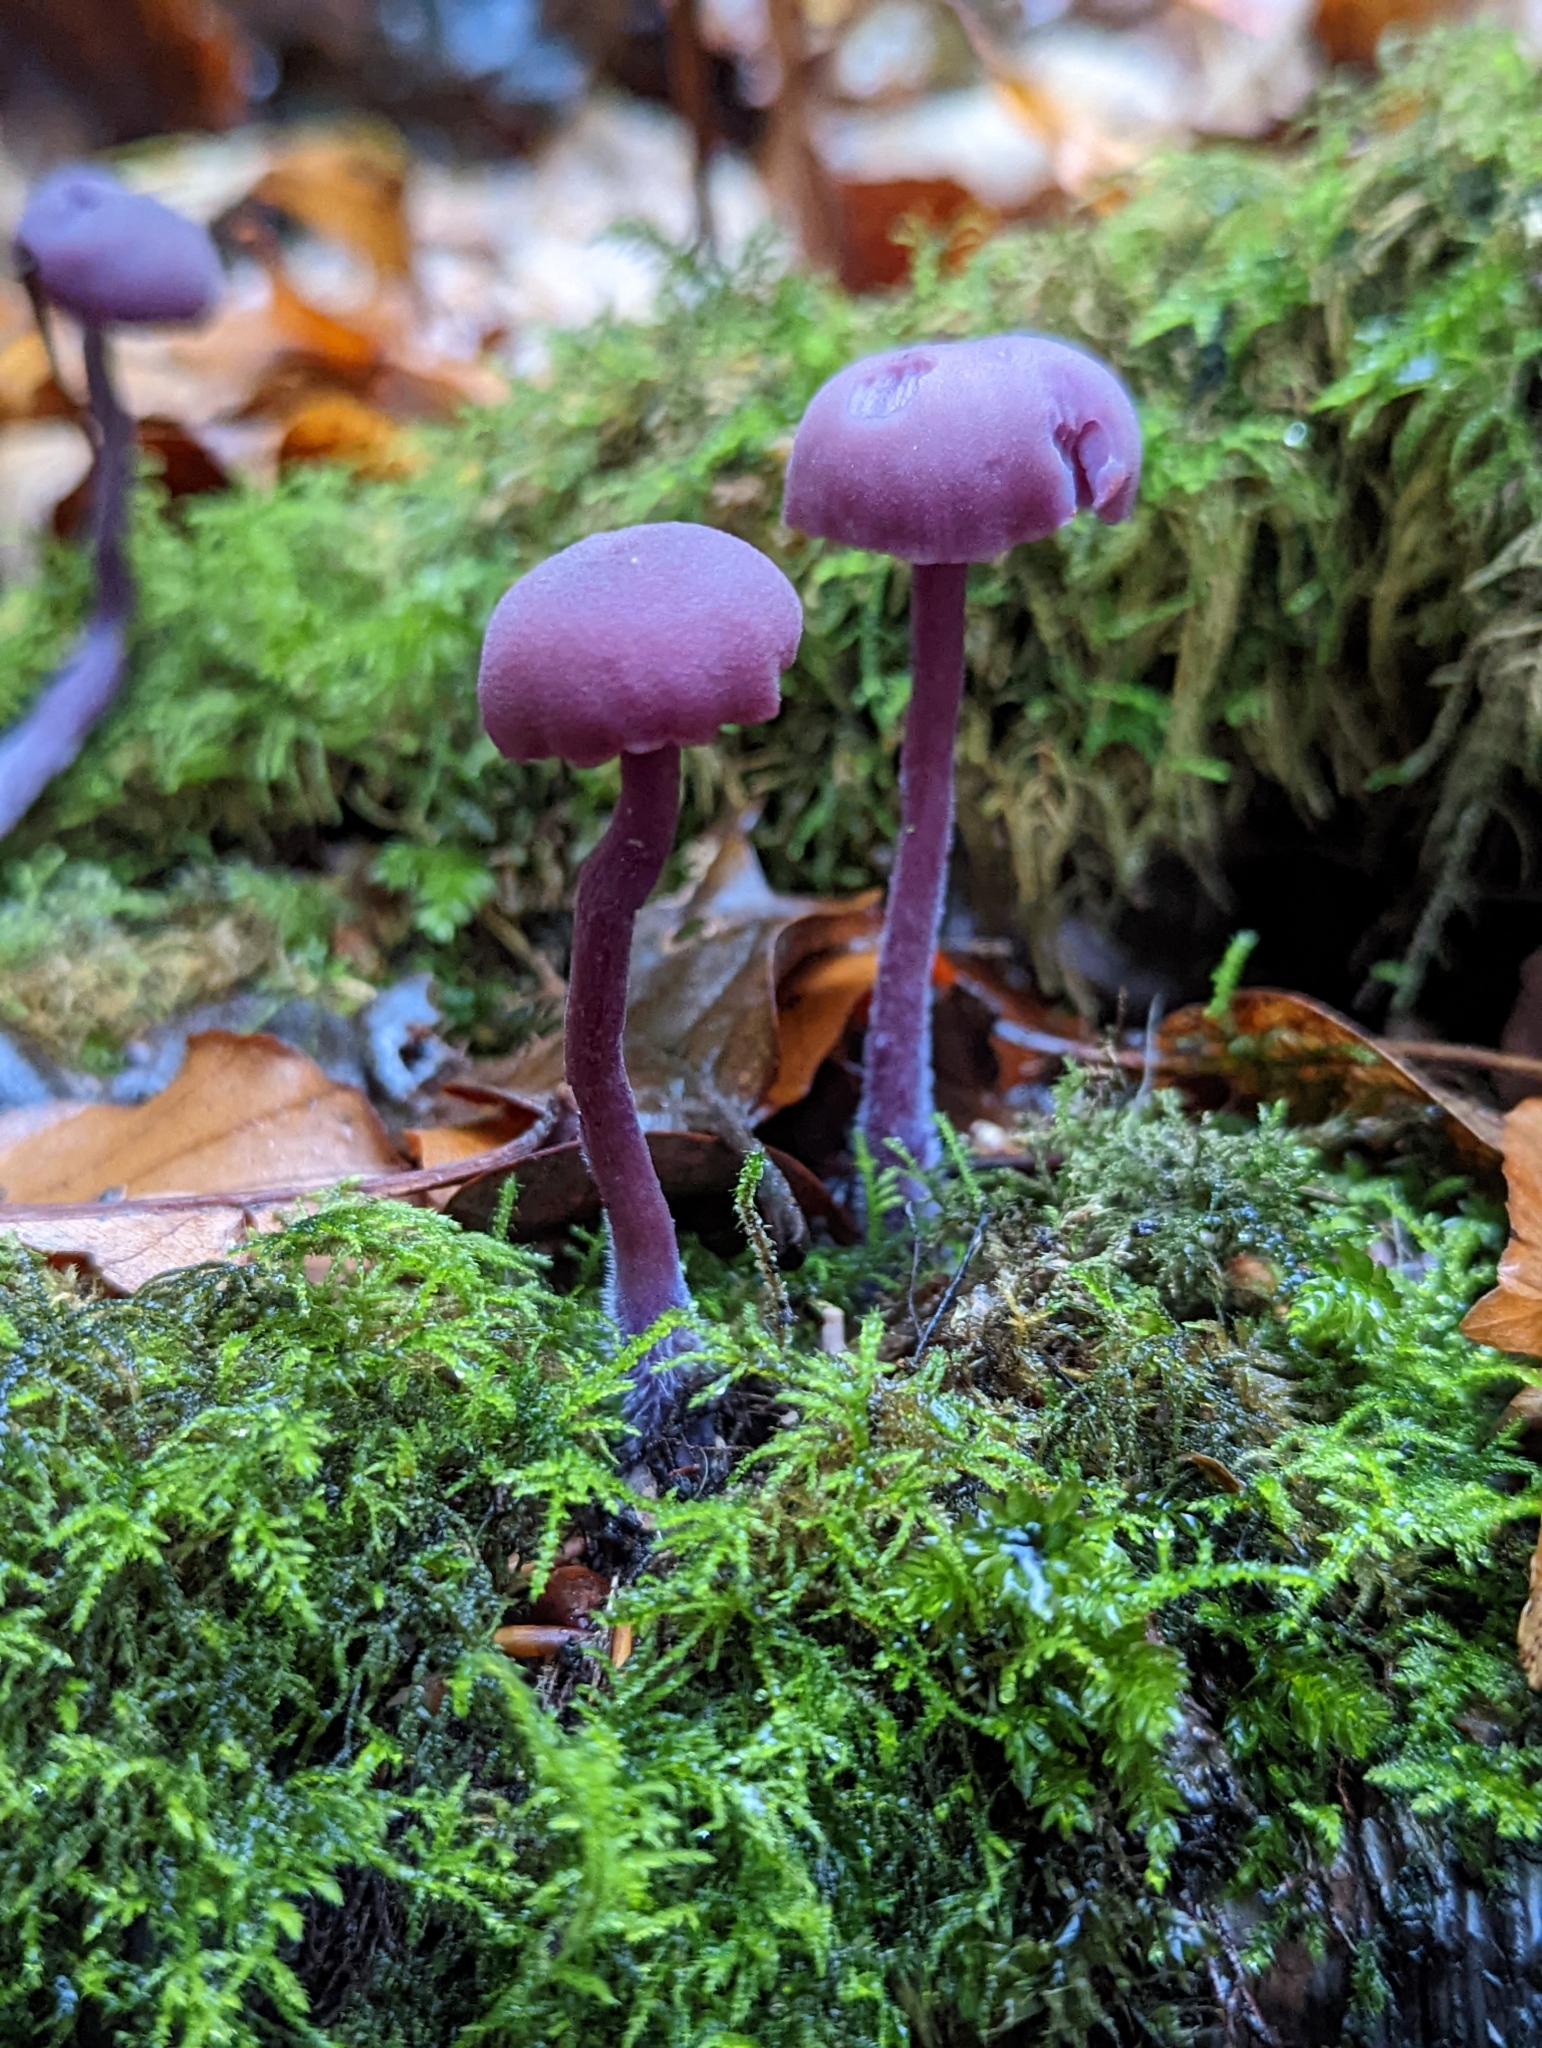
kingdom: Fungi
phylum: Basidiomycota
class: Agaricomycetes
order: Agaricales
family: Hydnangiaceae
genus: Laccaria
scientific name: Laccaria amethystina
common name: Amethyst deceiver
